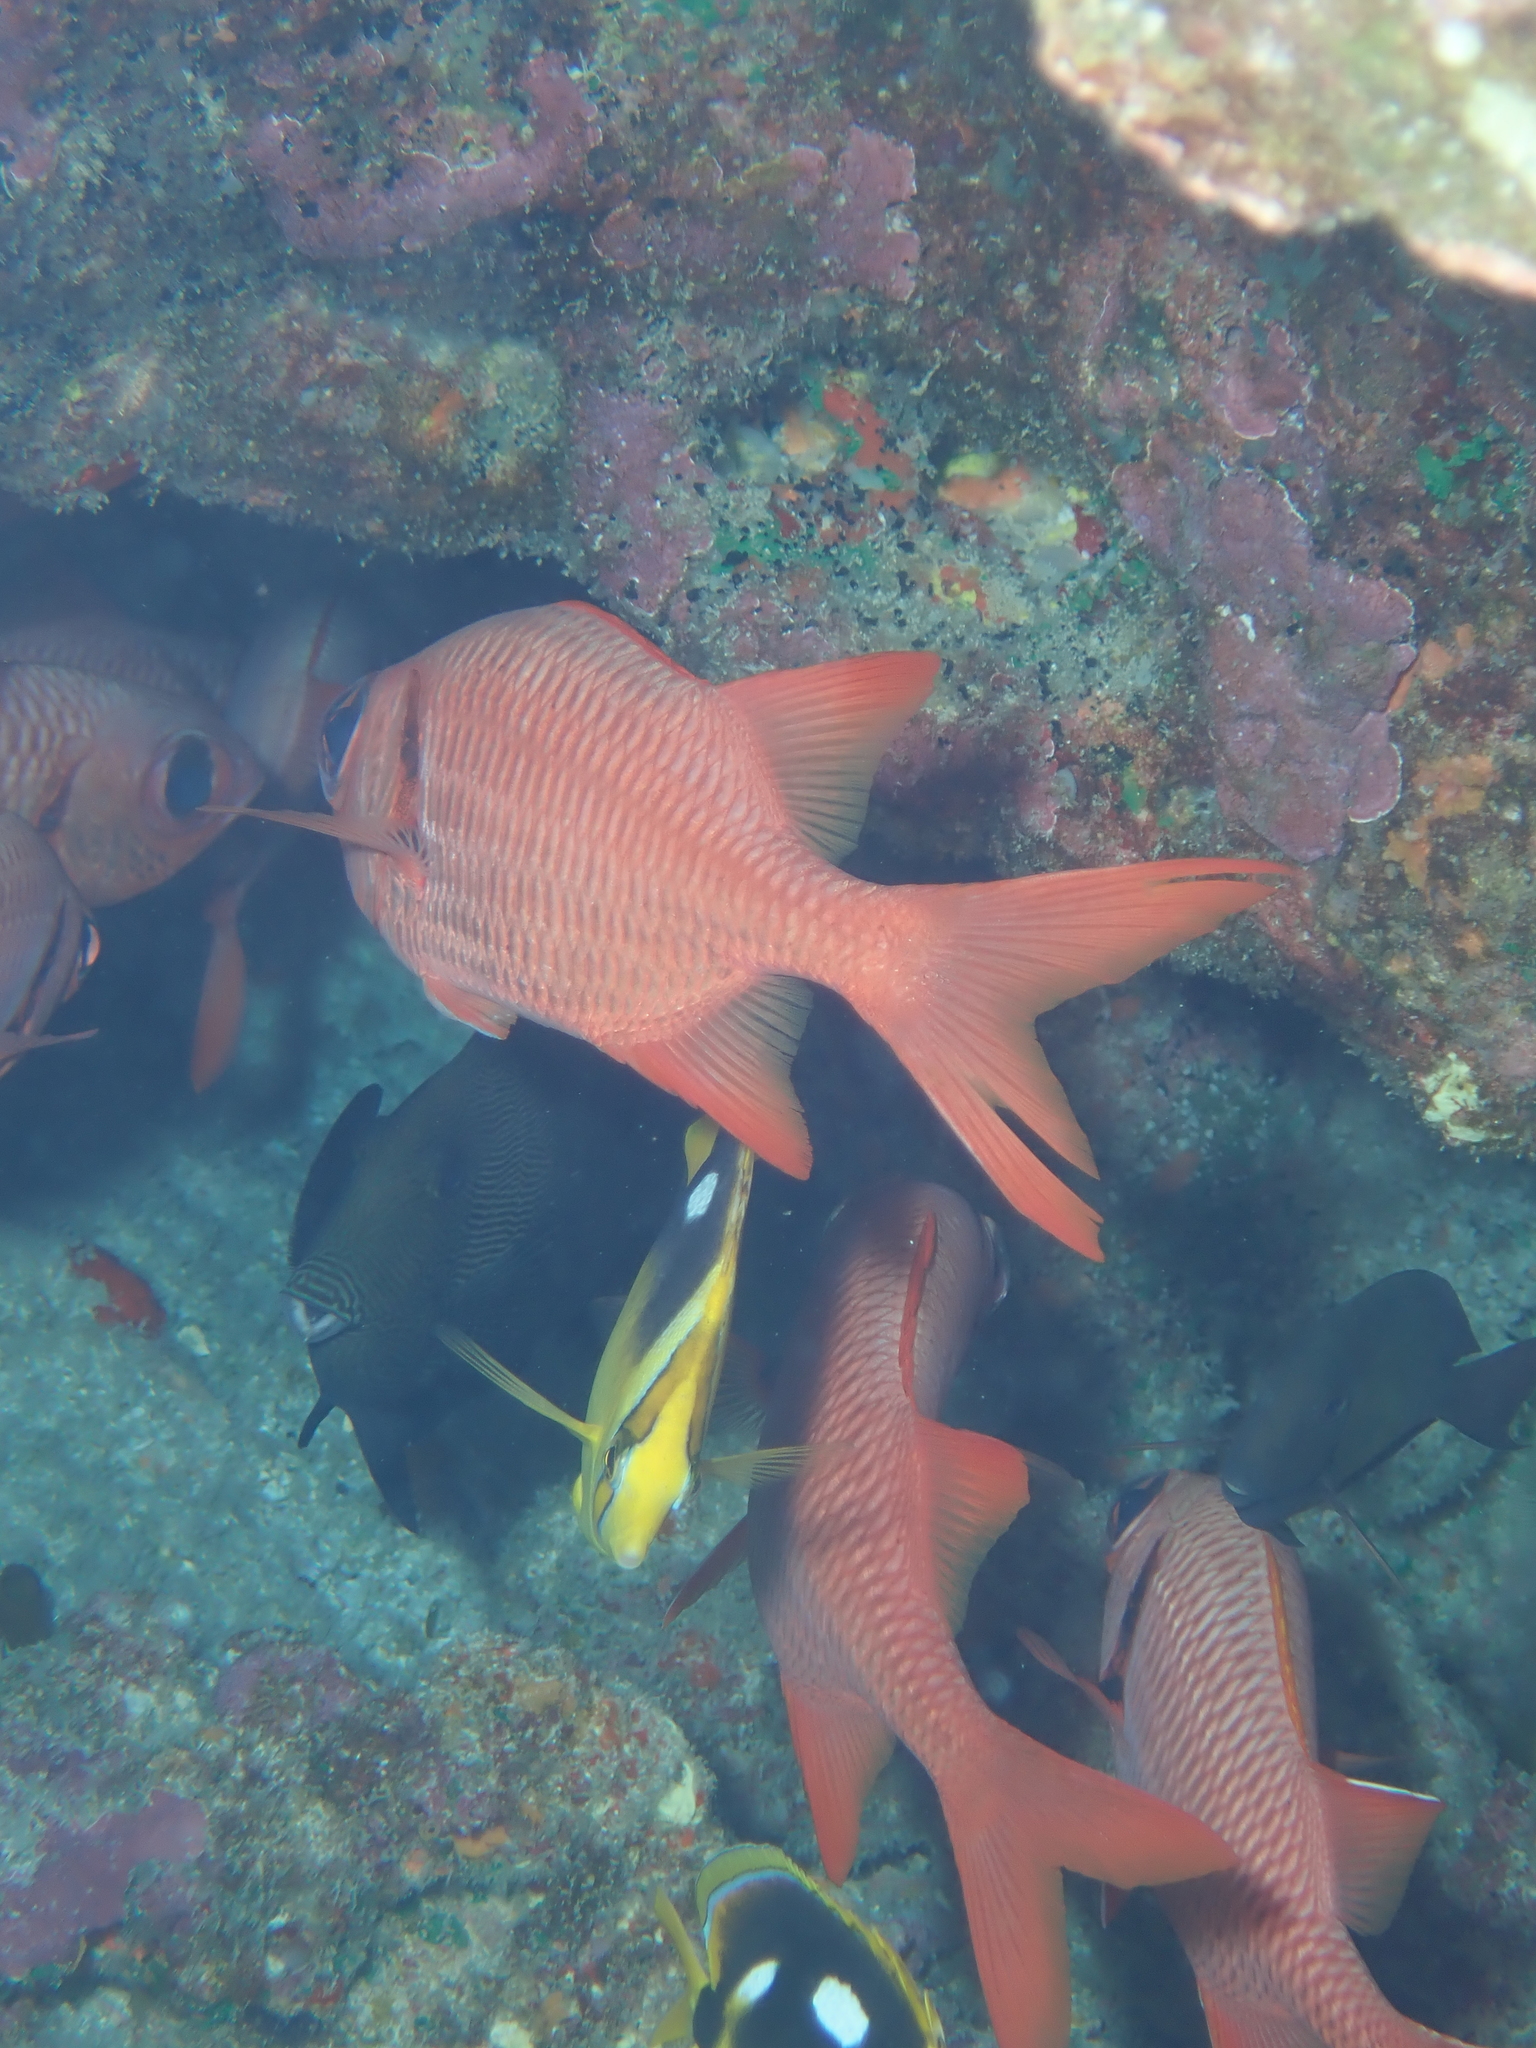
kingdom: Animalia
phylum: Chordata
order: Beryciformes
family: Holocentridae
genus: Myripristis
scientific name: Myripristis amaena
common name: Brick soldierfish
